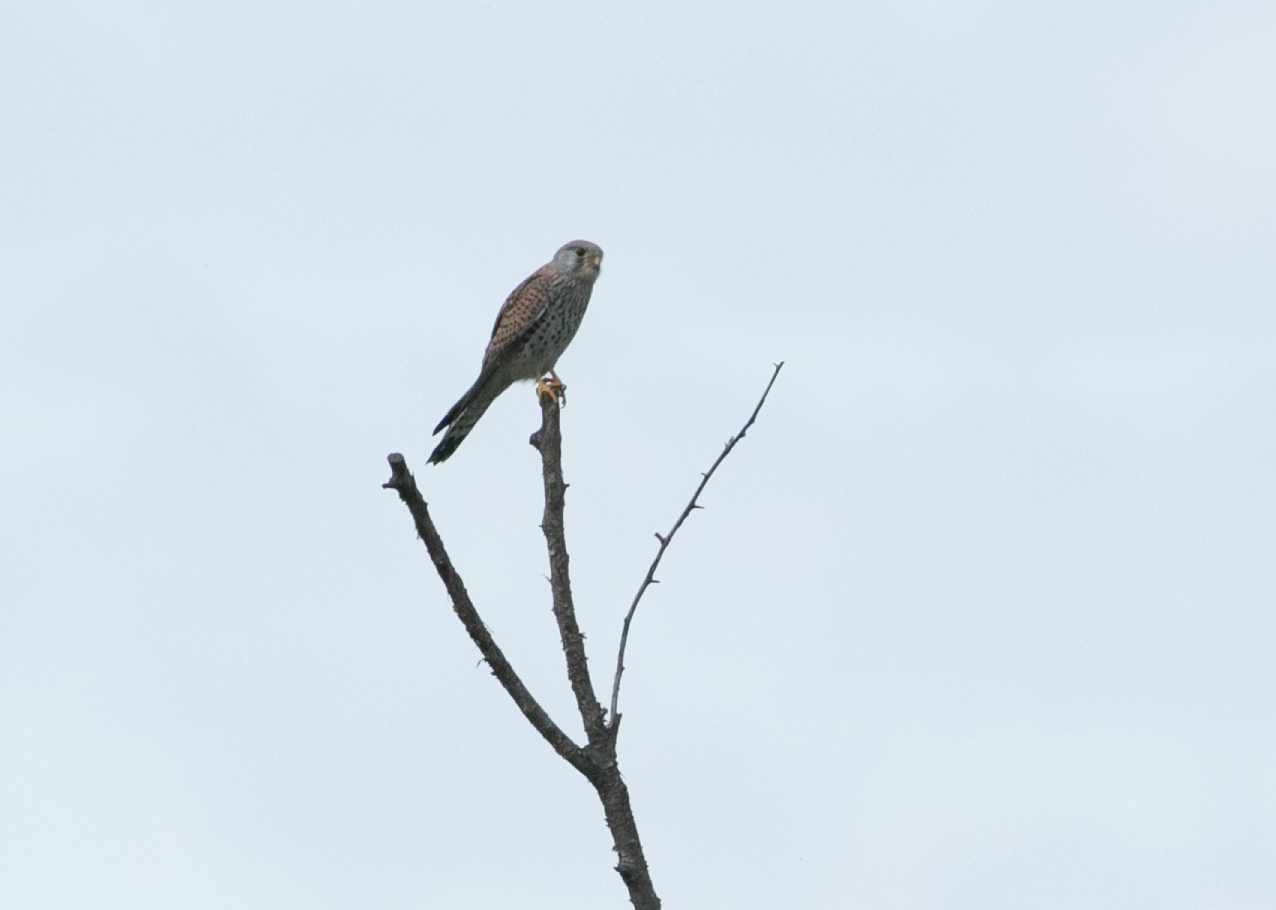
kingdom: Animalia
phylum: Chordata
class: Aves
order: Falconiformes
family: Falconidae
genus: Falco
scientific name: Falco tinnunculus
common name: Common kestrel
